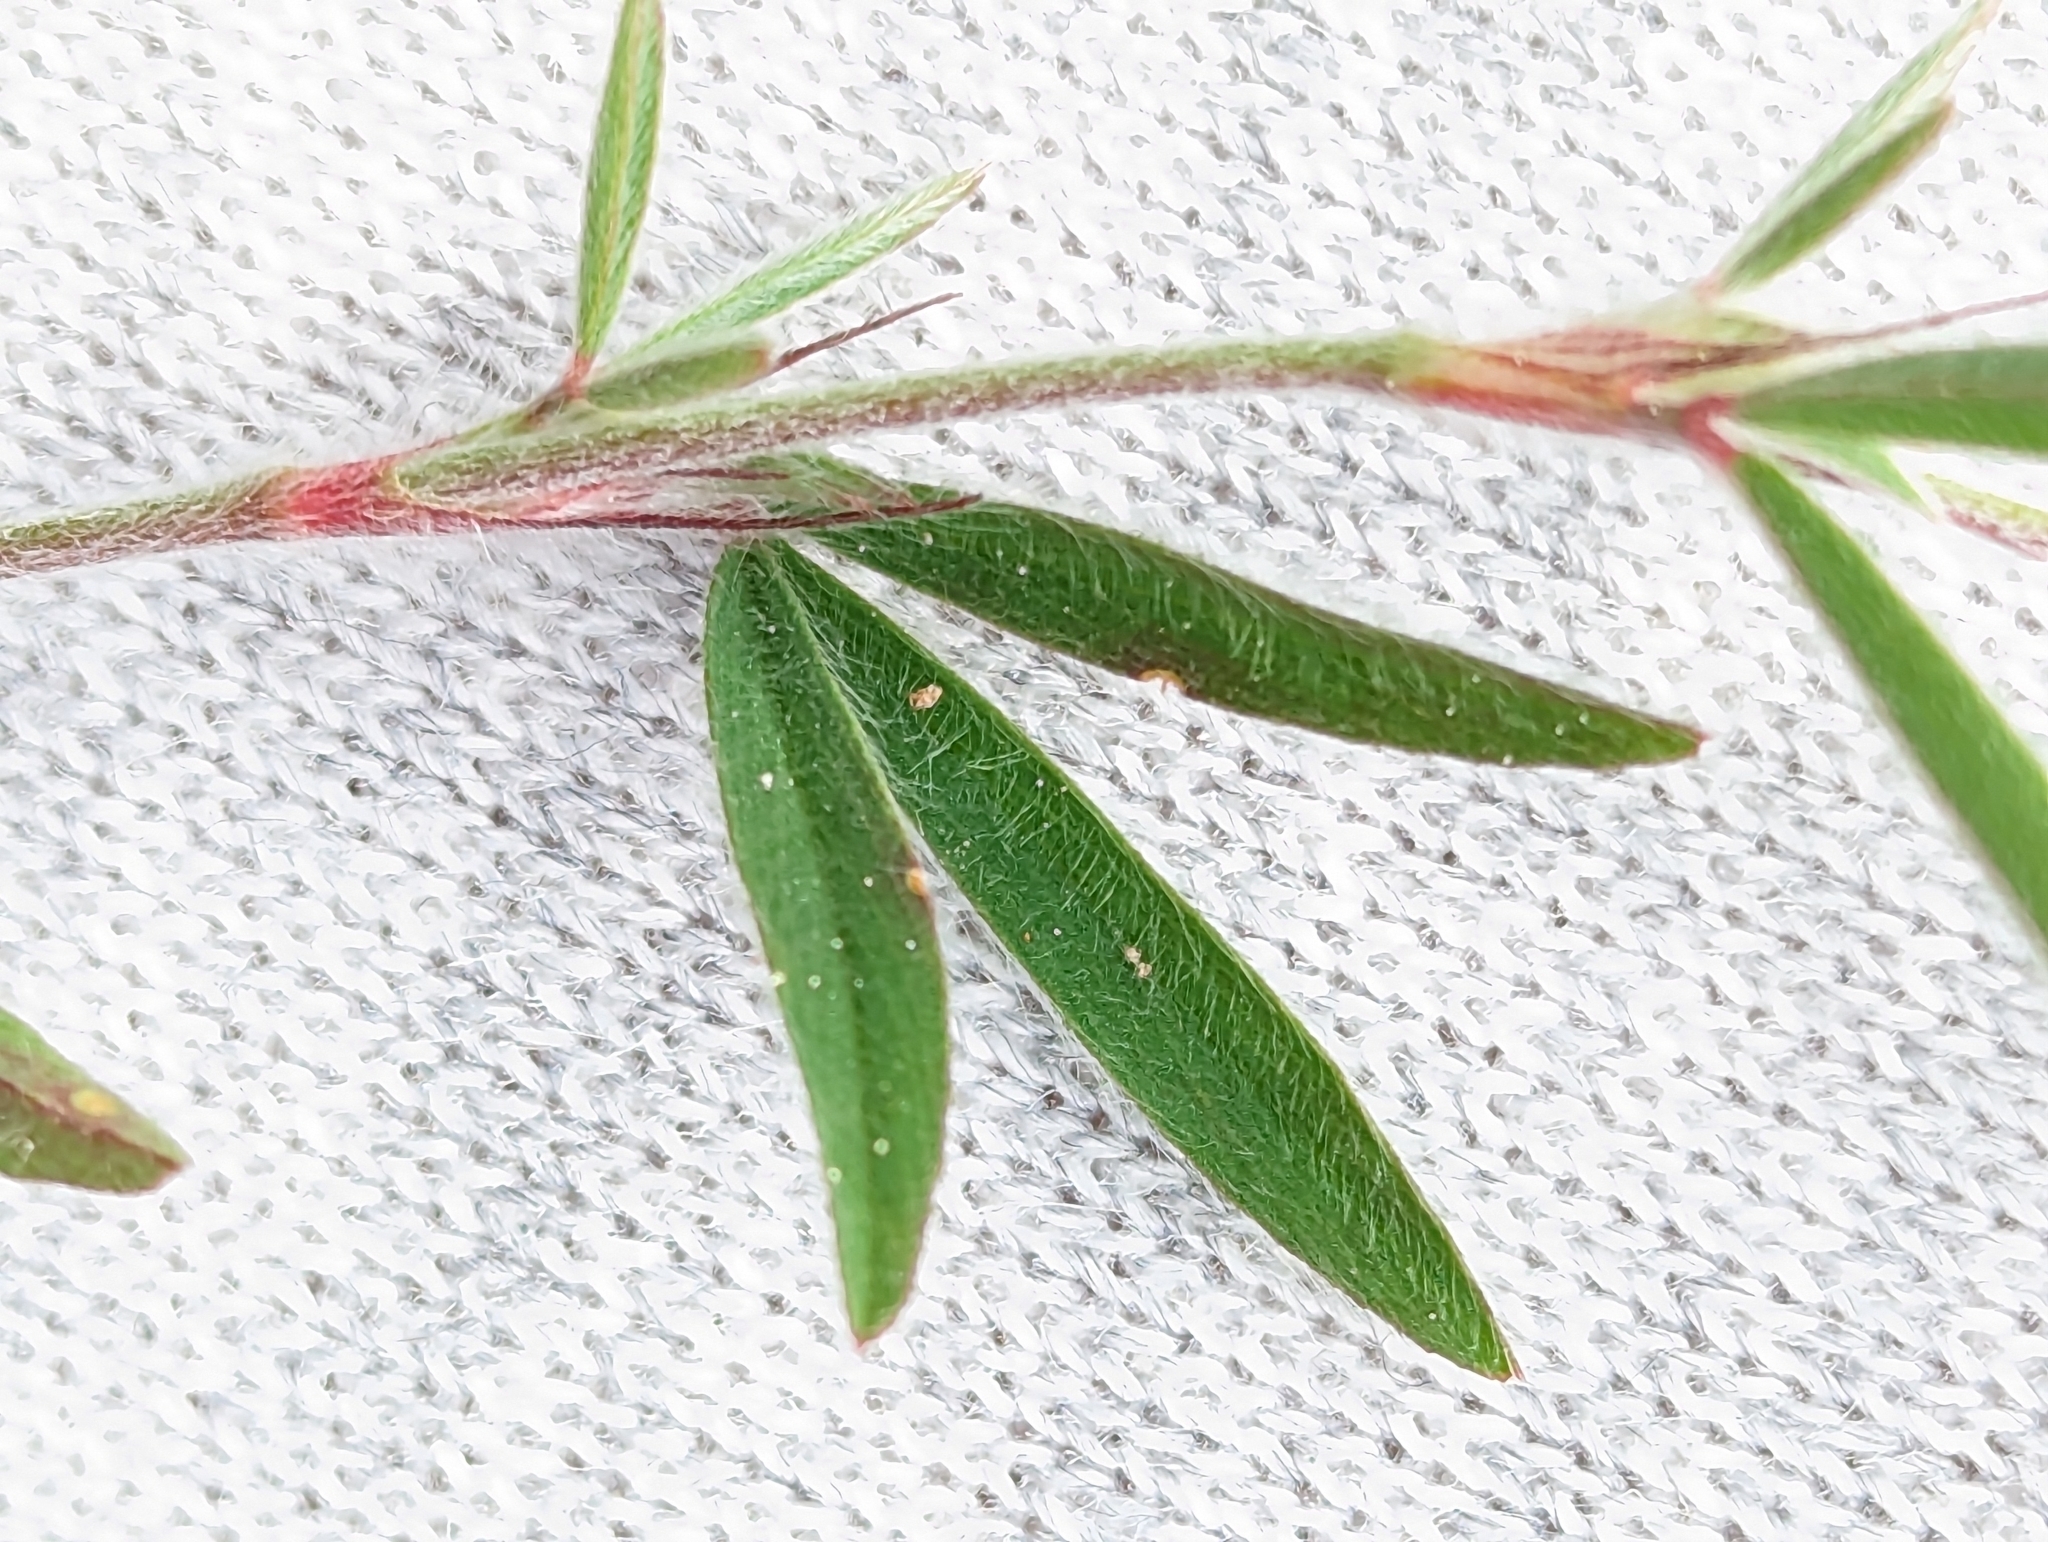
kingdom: Plantae
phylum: Tracheophyta
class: Magnoliopsida
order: Fabales
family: Fabaceae
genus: Trifolium
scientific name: Trifolium arvense
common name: Hare's-foot clover
